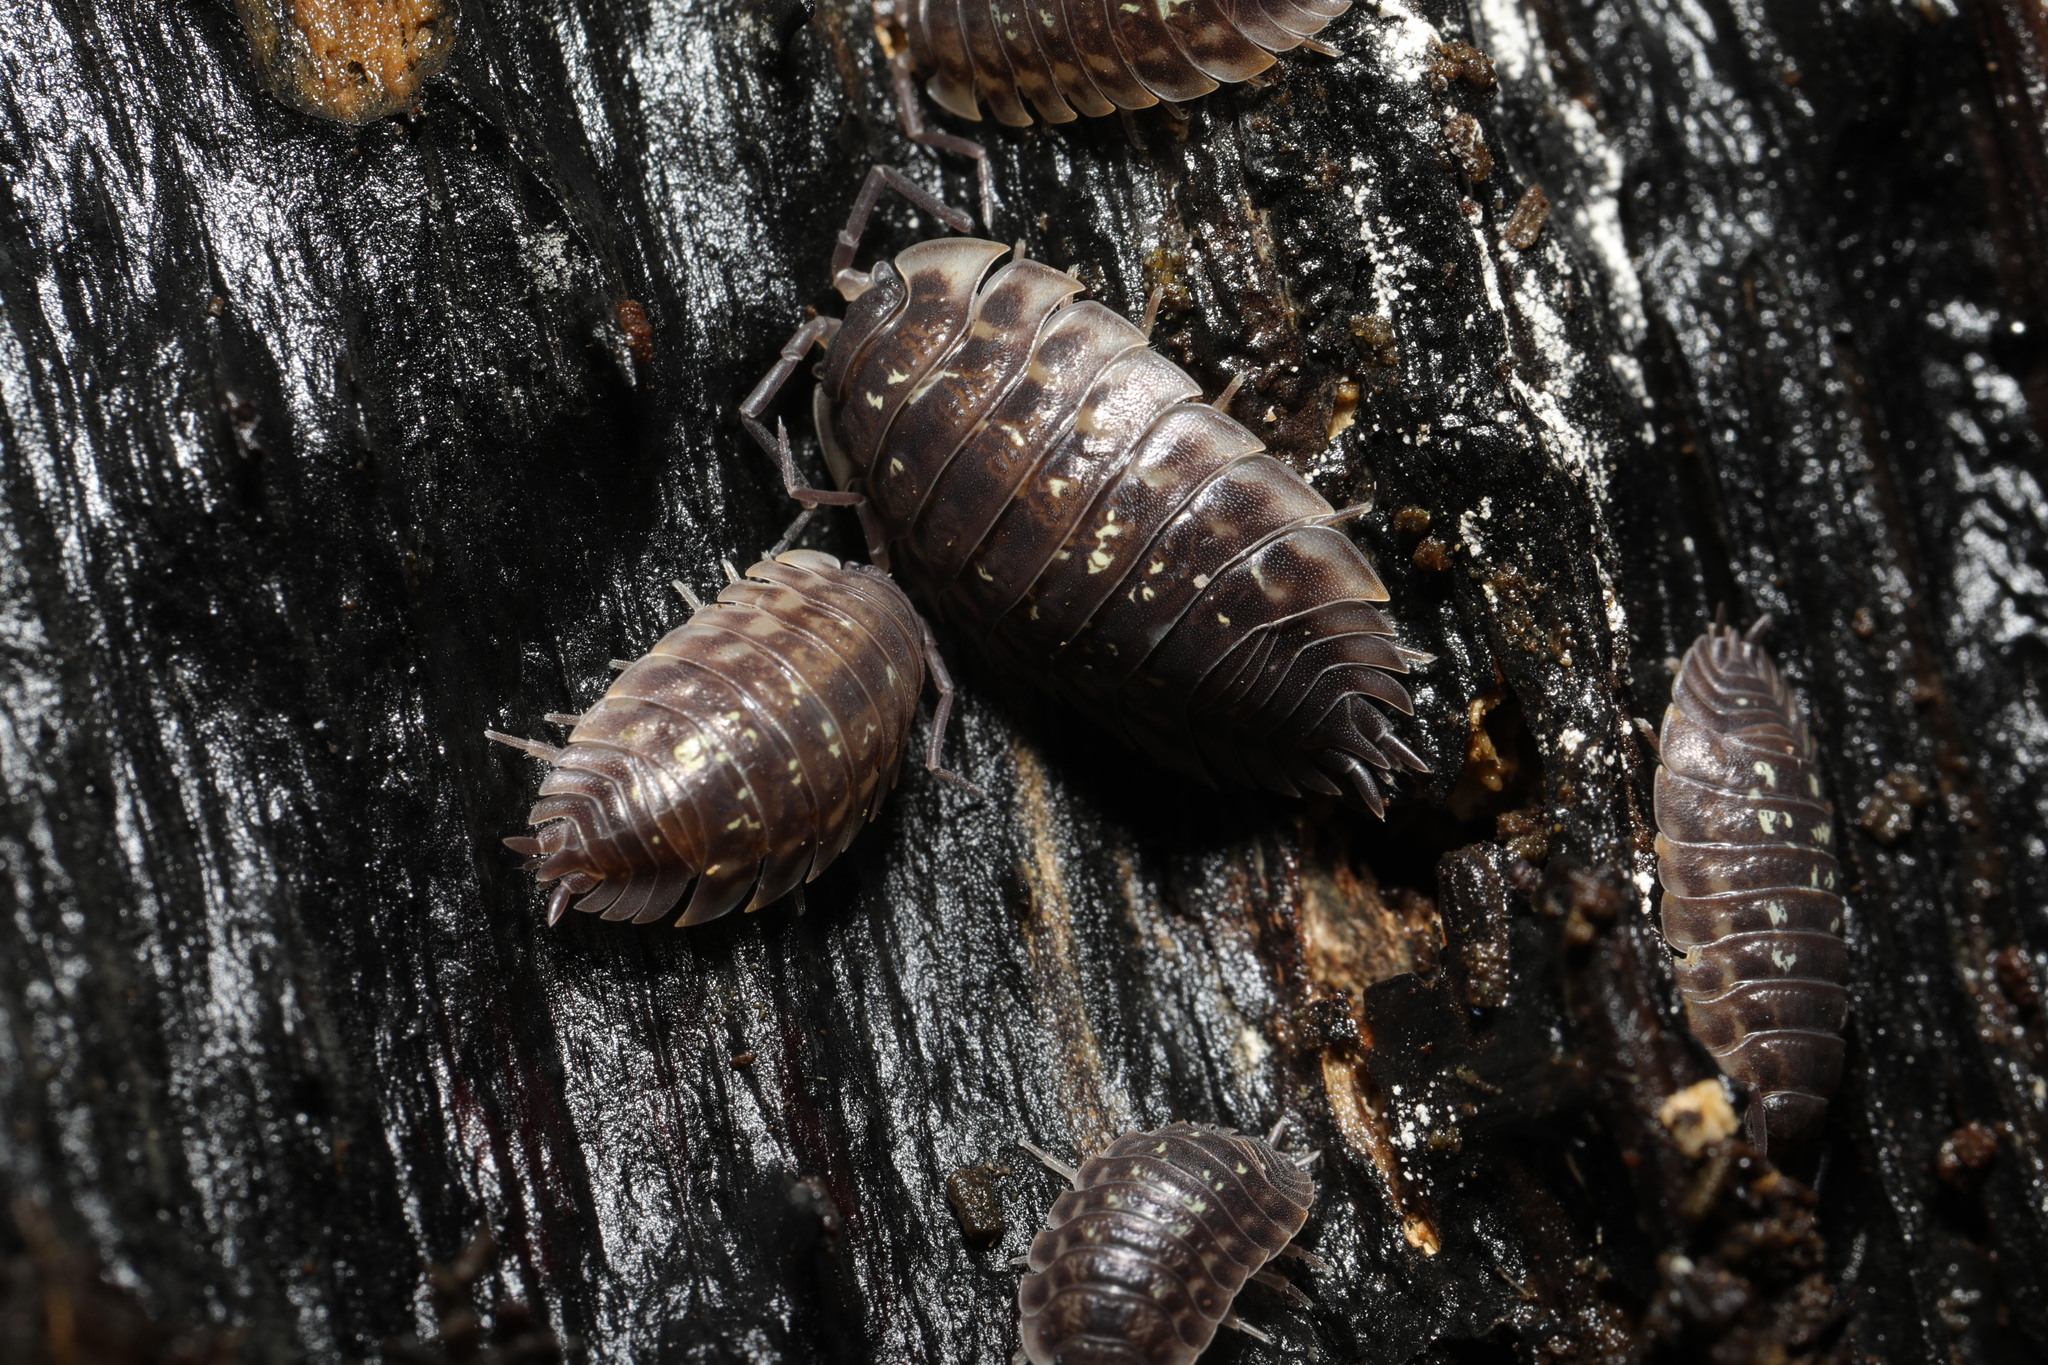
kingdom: Animalia
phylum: Arthropoda
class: Malacostraca
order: Isopoda
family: Oniscidae
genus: Oniscus
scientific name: Oniscus asellus
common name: Common shiny woodlouse
